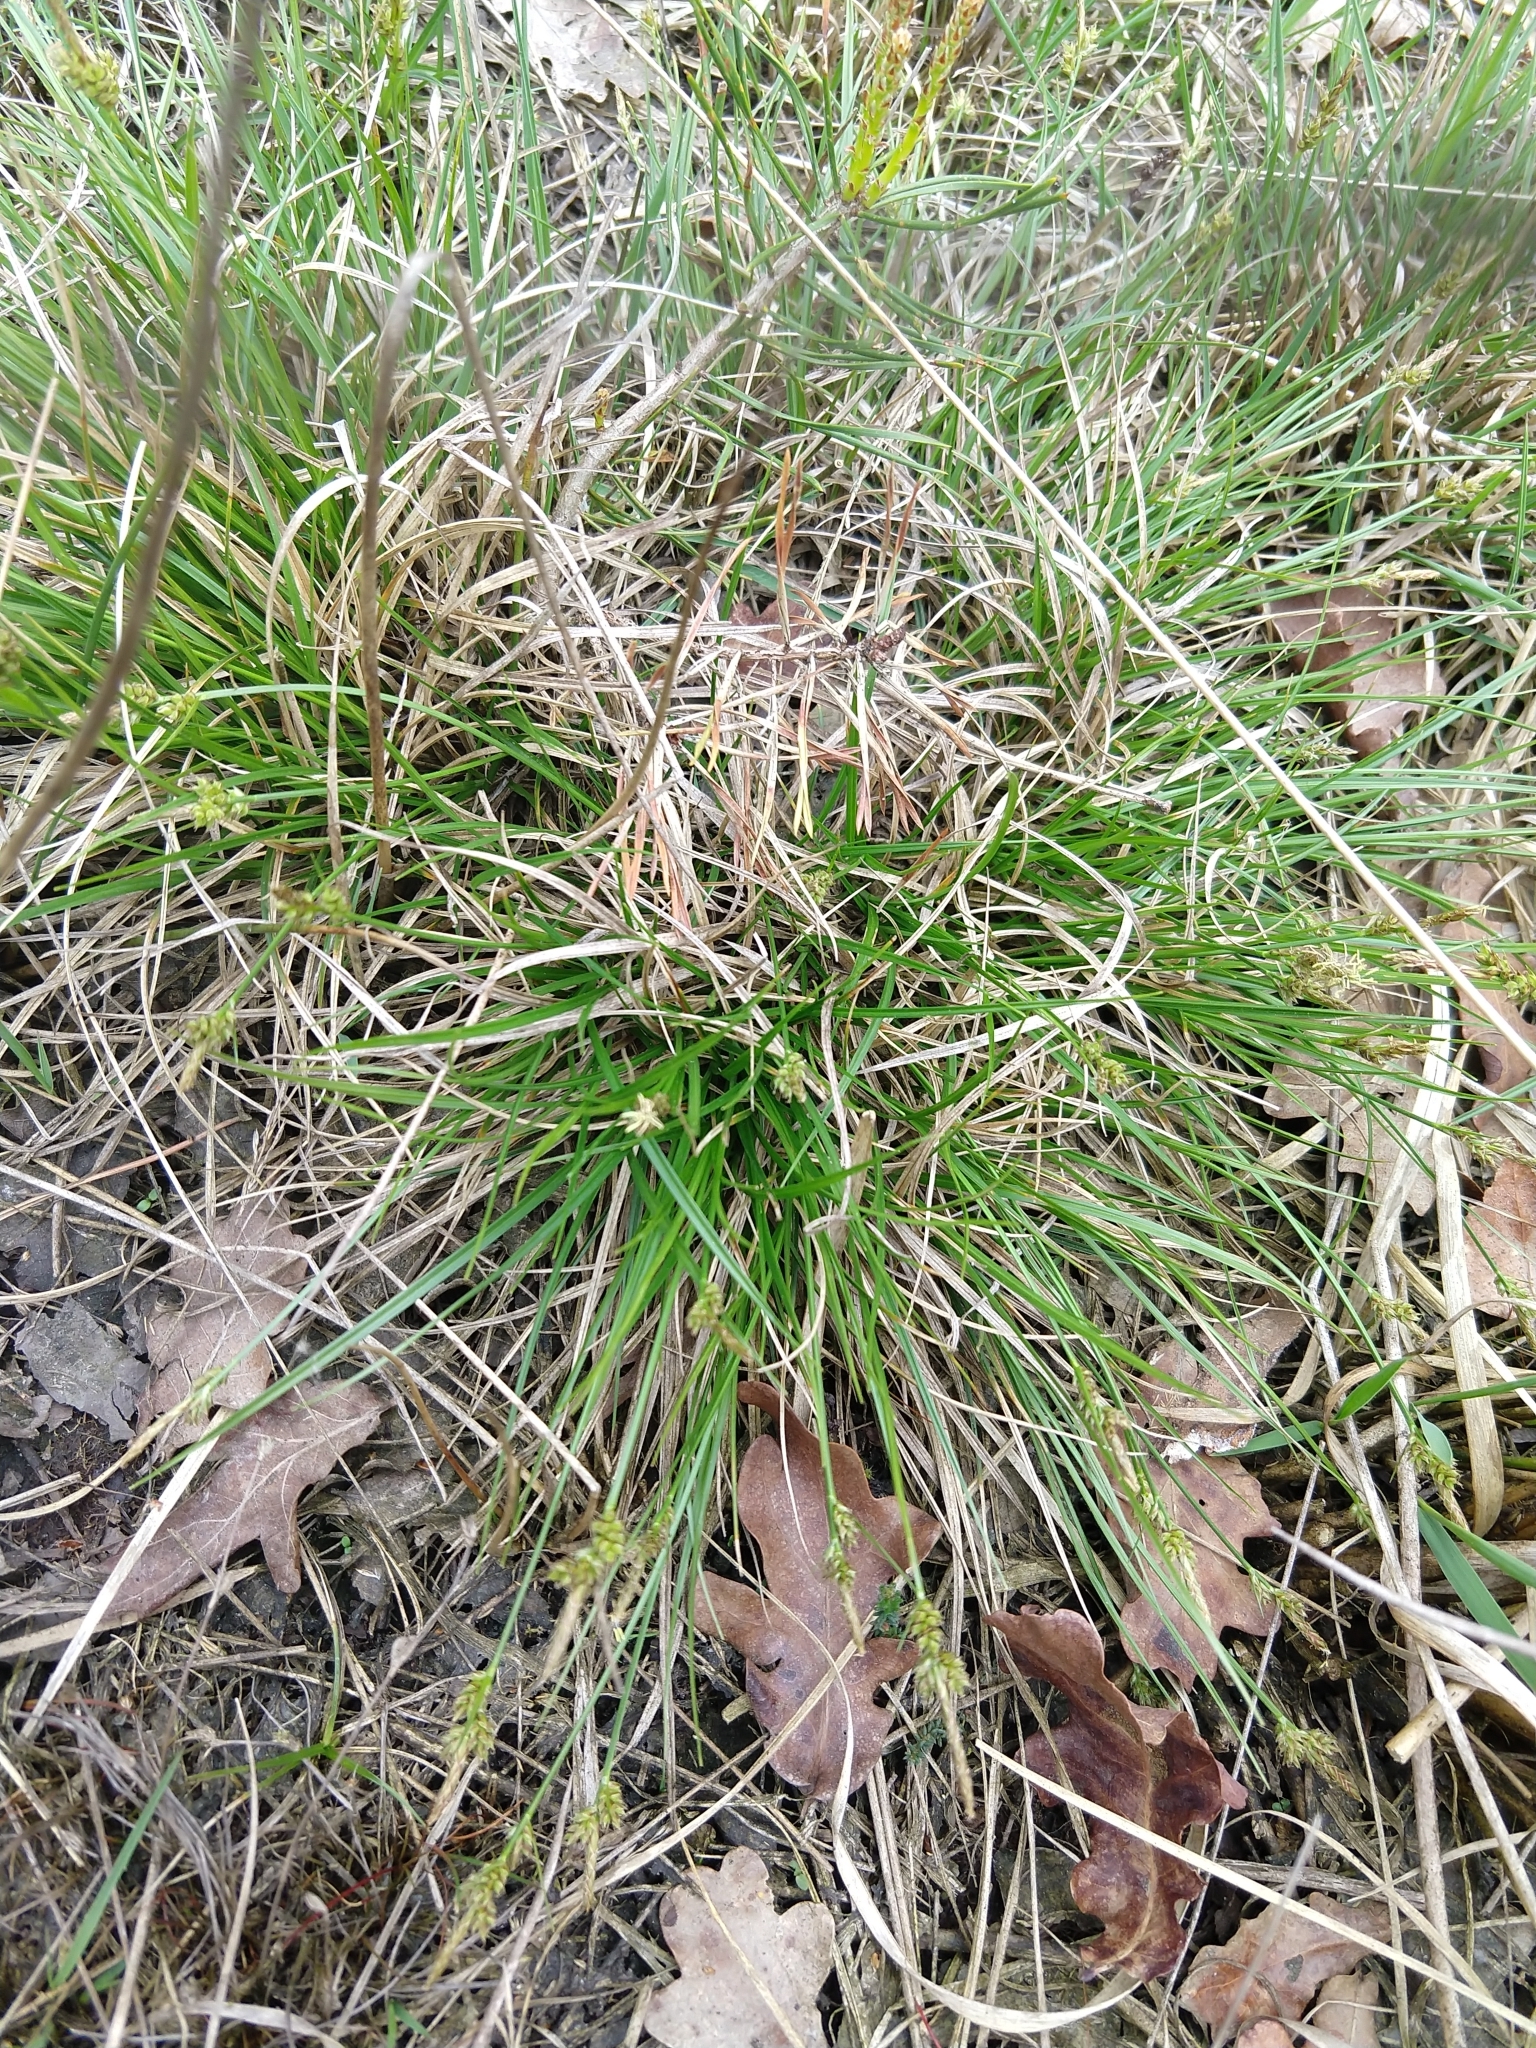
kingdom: Plantae
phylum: Tracheophyta
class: Liliopsida
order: Poales
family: Cyperaceae
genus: Carex
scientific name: Carex pilulifera
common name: Pill sedge
